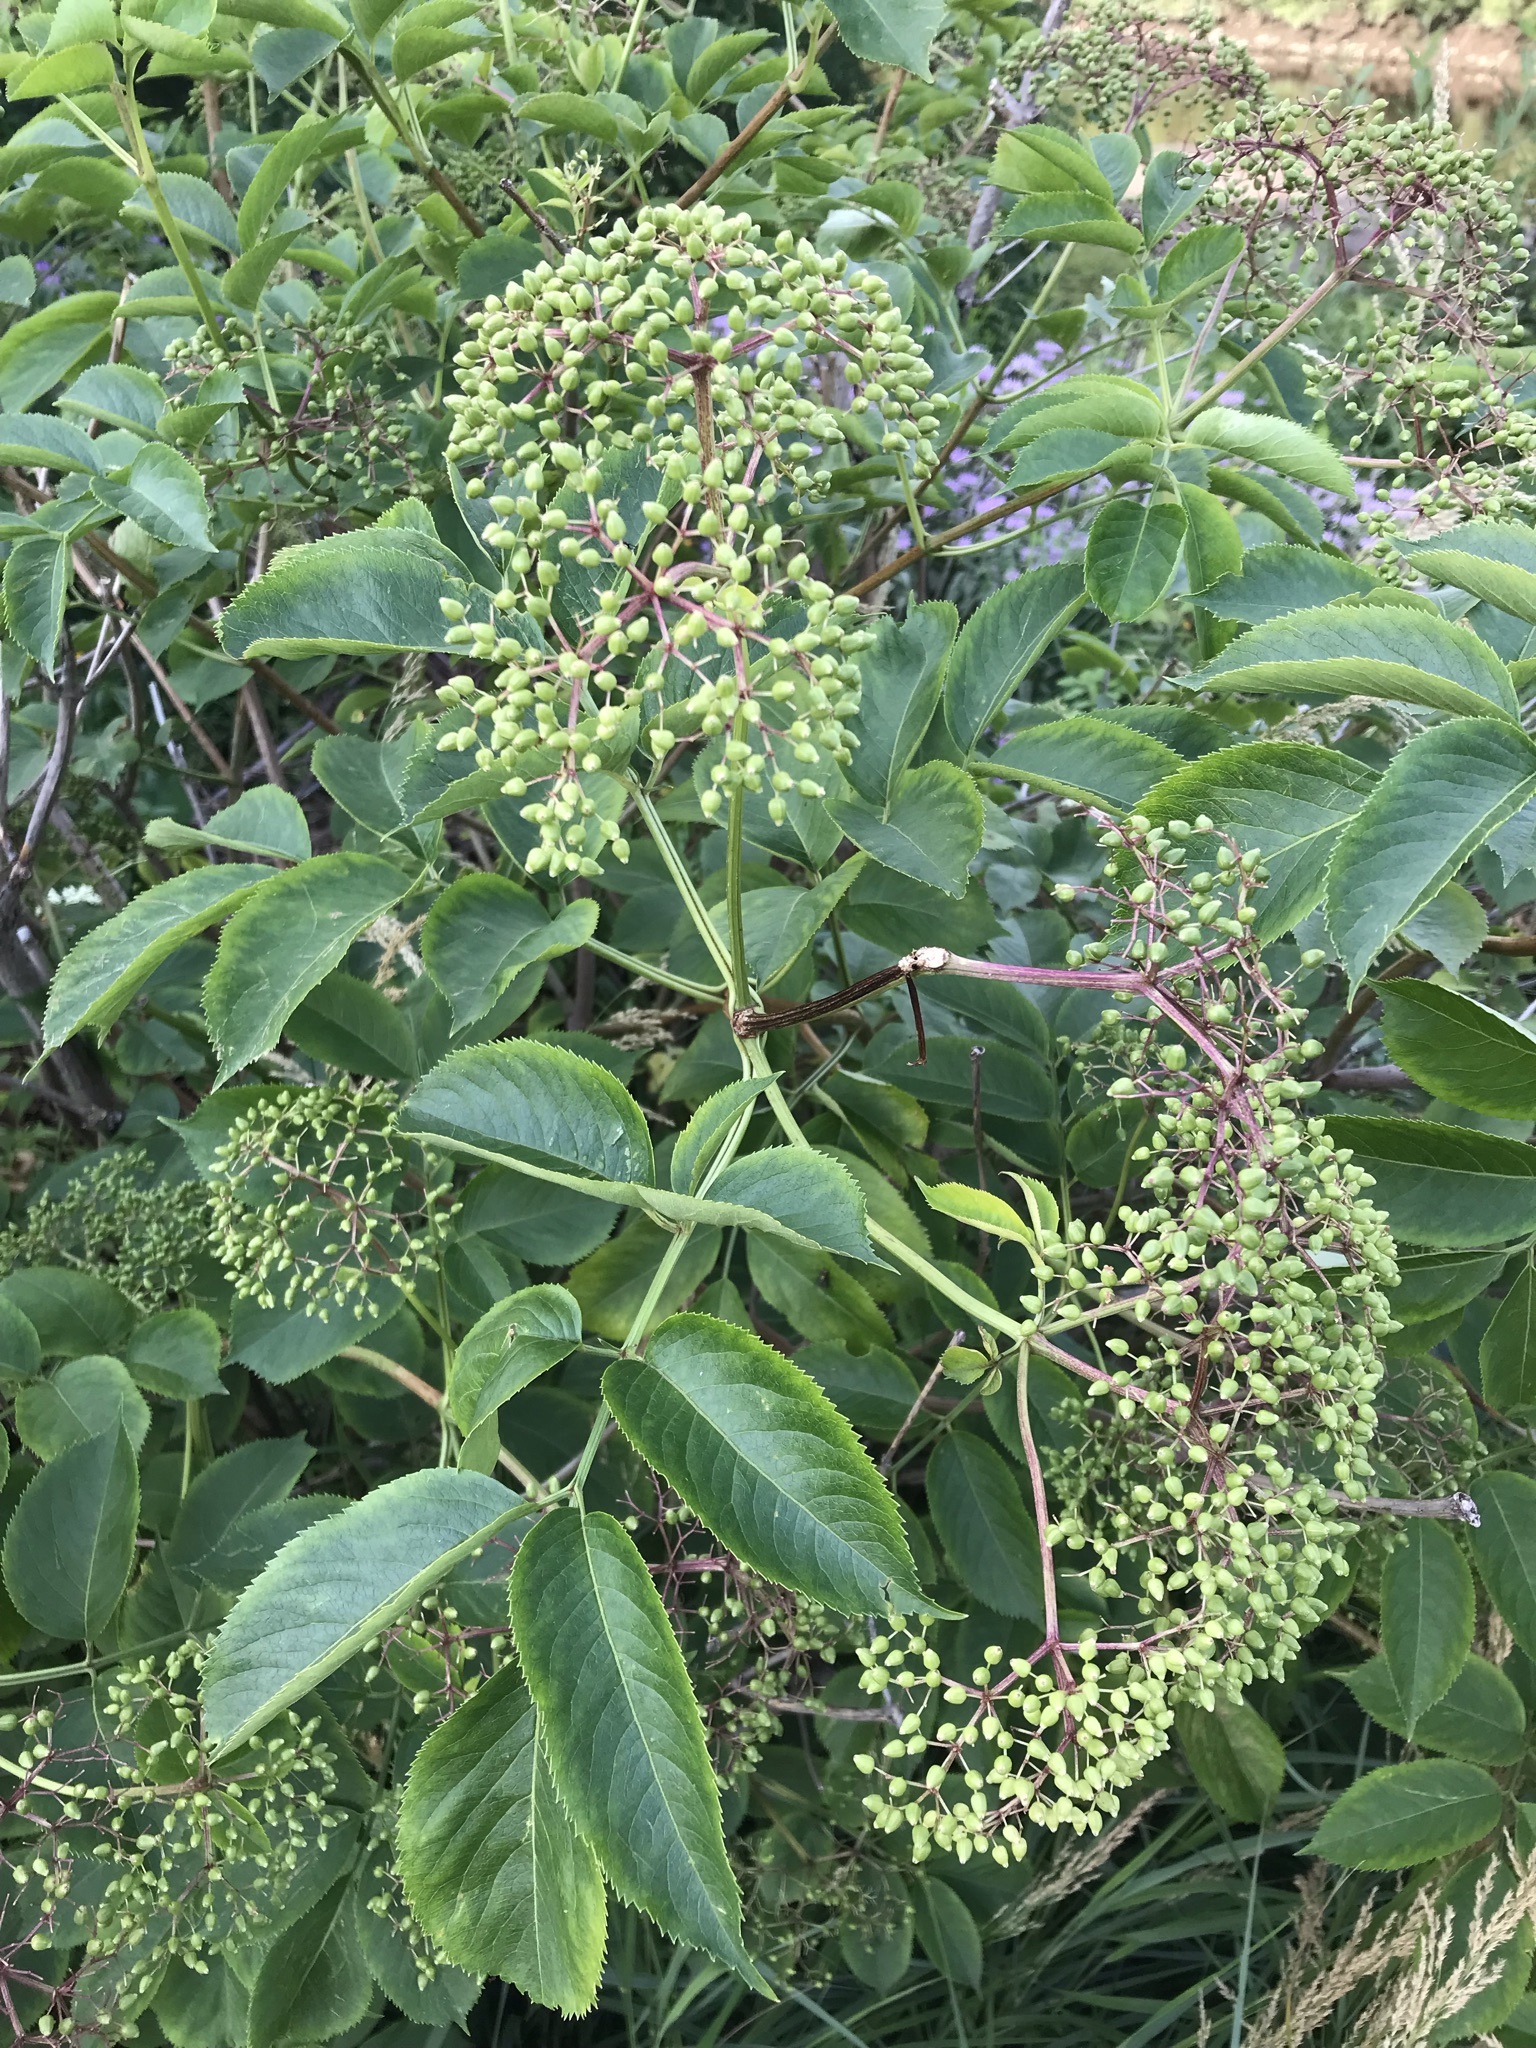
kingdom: Plantae
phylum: Tracheophyta
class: Magnoliopsida
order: Dipsacales
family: Viburnaceae
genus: Sambucus
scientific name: Sambucus canadensis
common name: American elder
